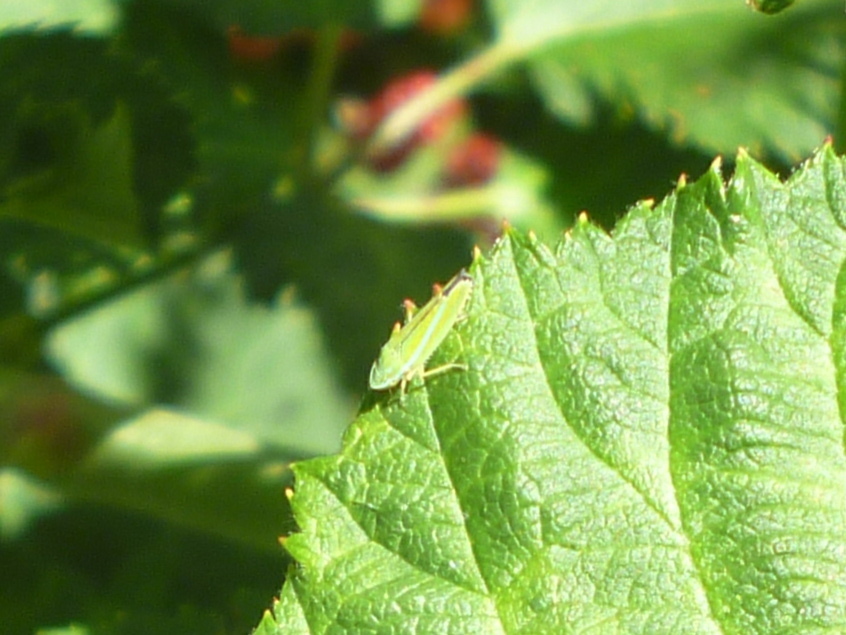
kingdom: Animalia
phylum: Arthropoda
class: Insecta
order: Hemiptera
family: Cicadellidae
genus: Graphocephala
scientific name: Graphocephala versuta
